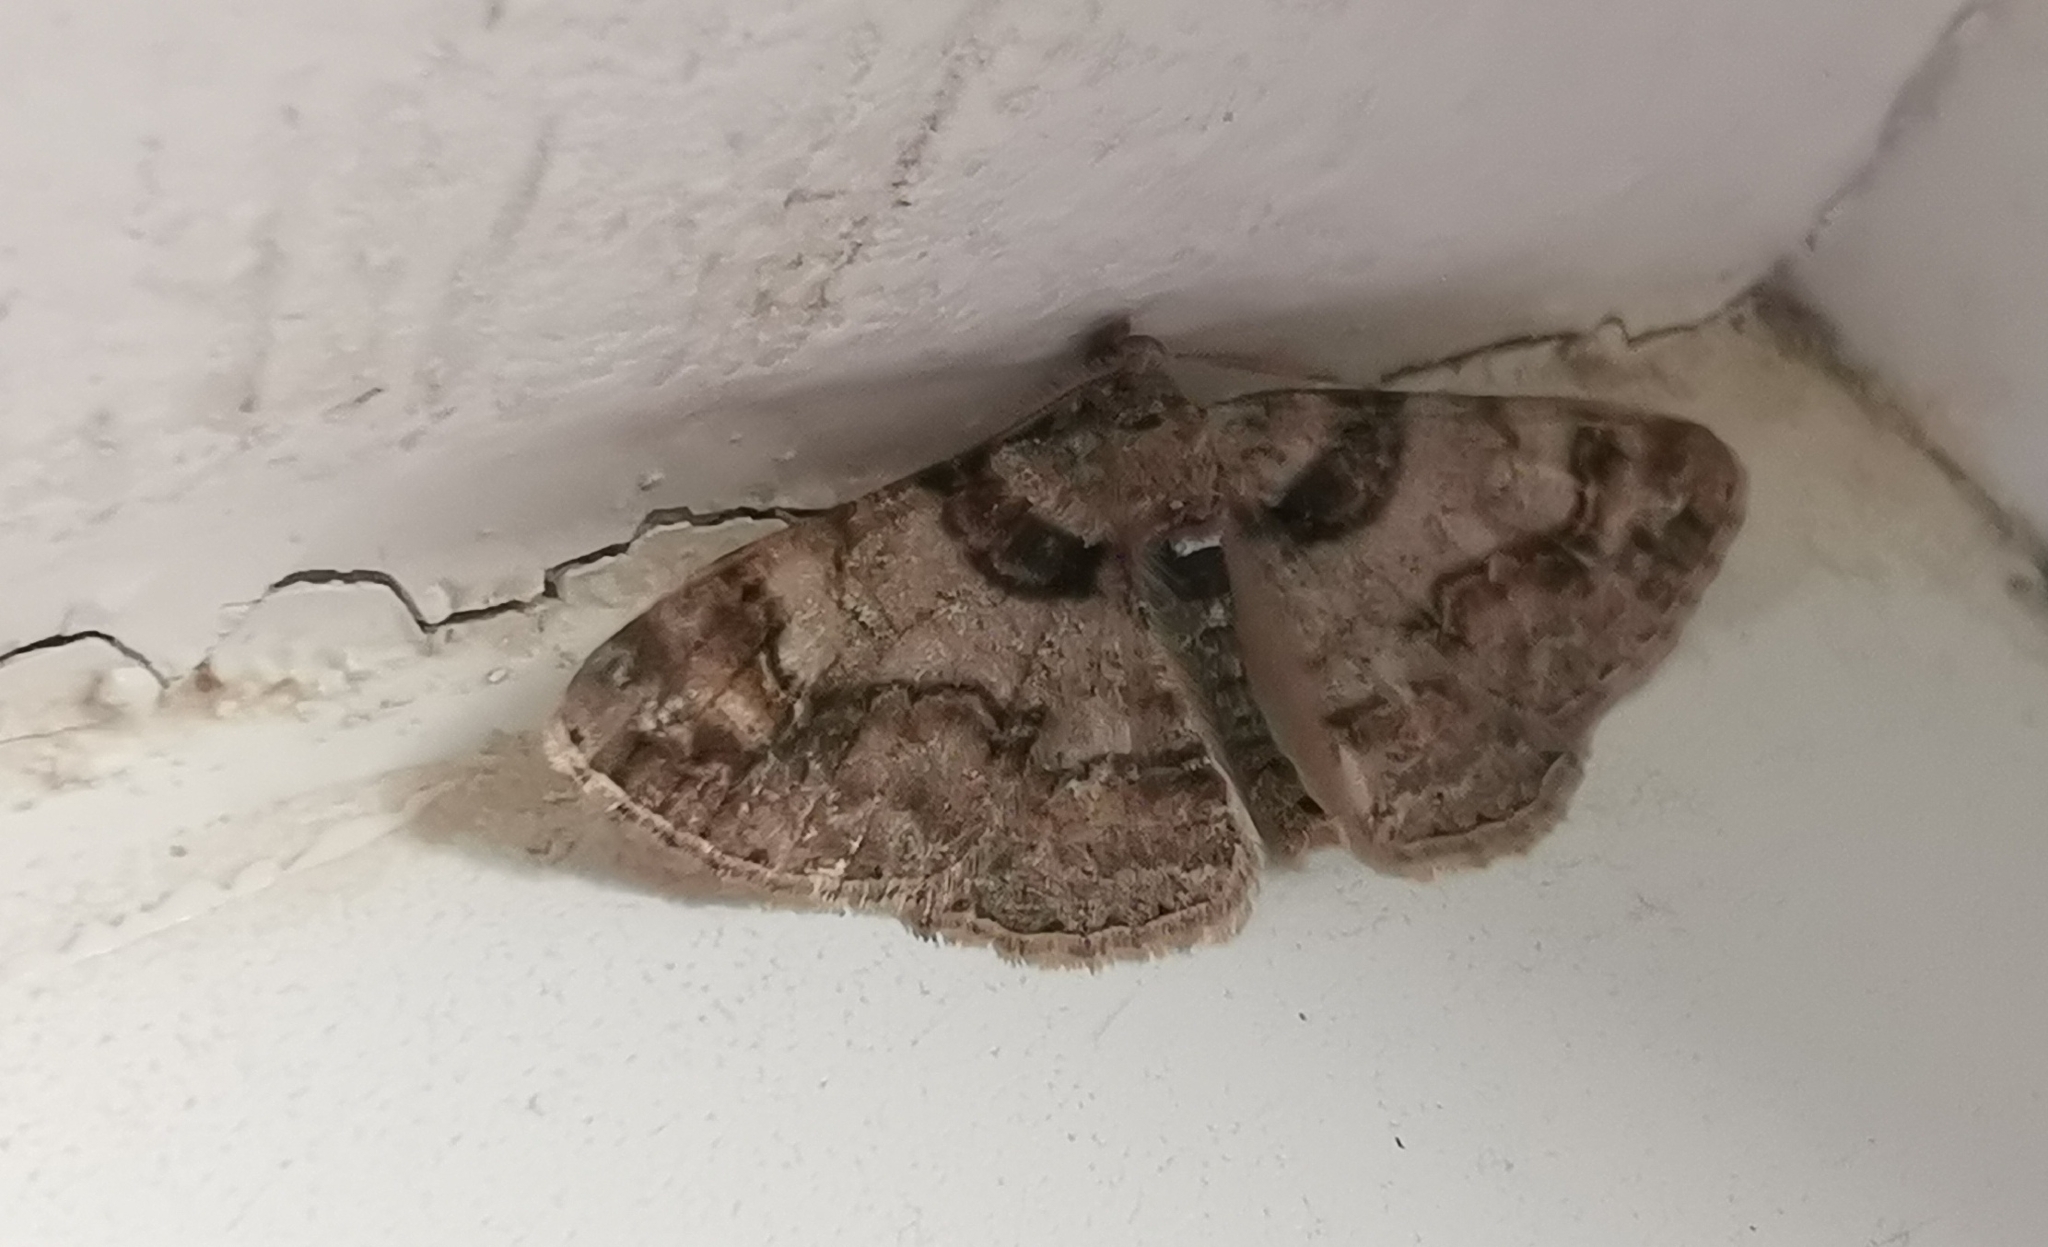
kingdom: Animalia
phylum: Arthropoda
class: Insecta
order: Lepidoptera
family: Geometridae
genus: Cleora
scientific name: Cleora cinctaria
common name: Ringed carpet
